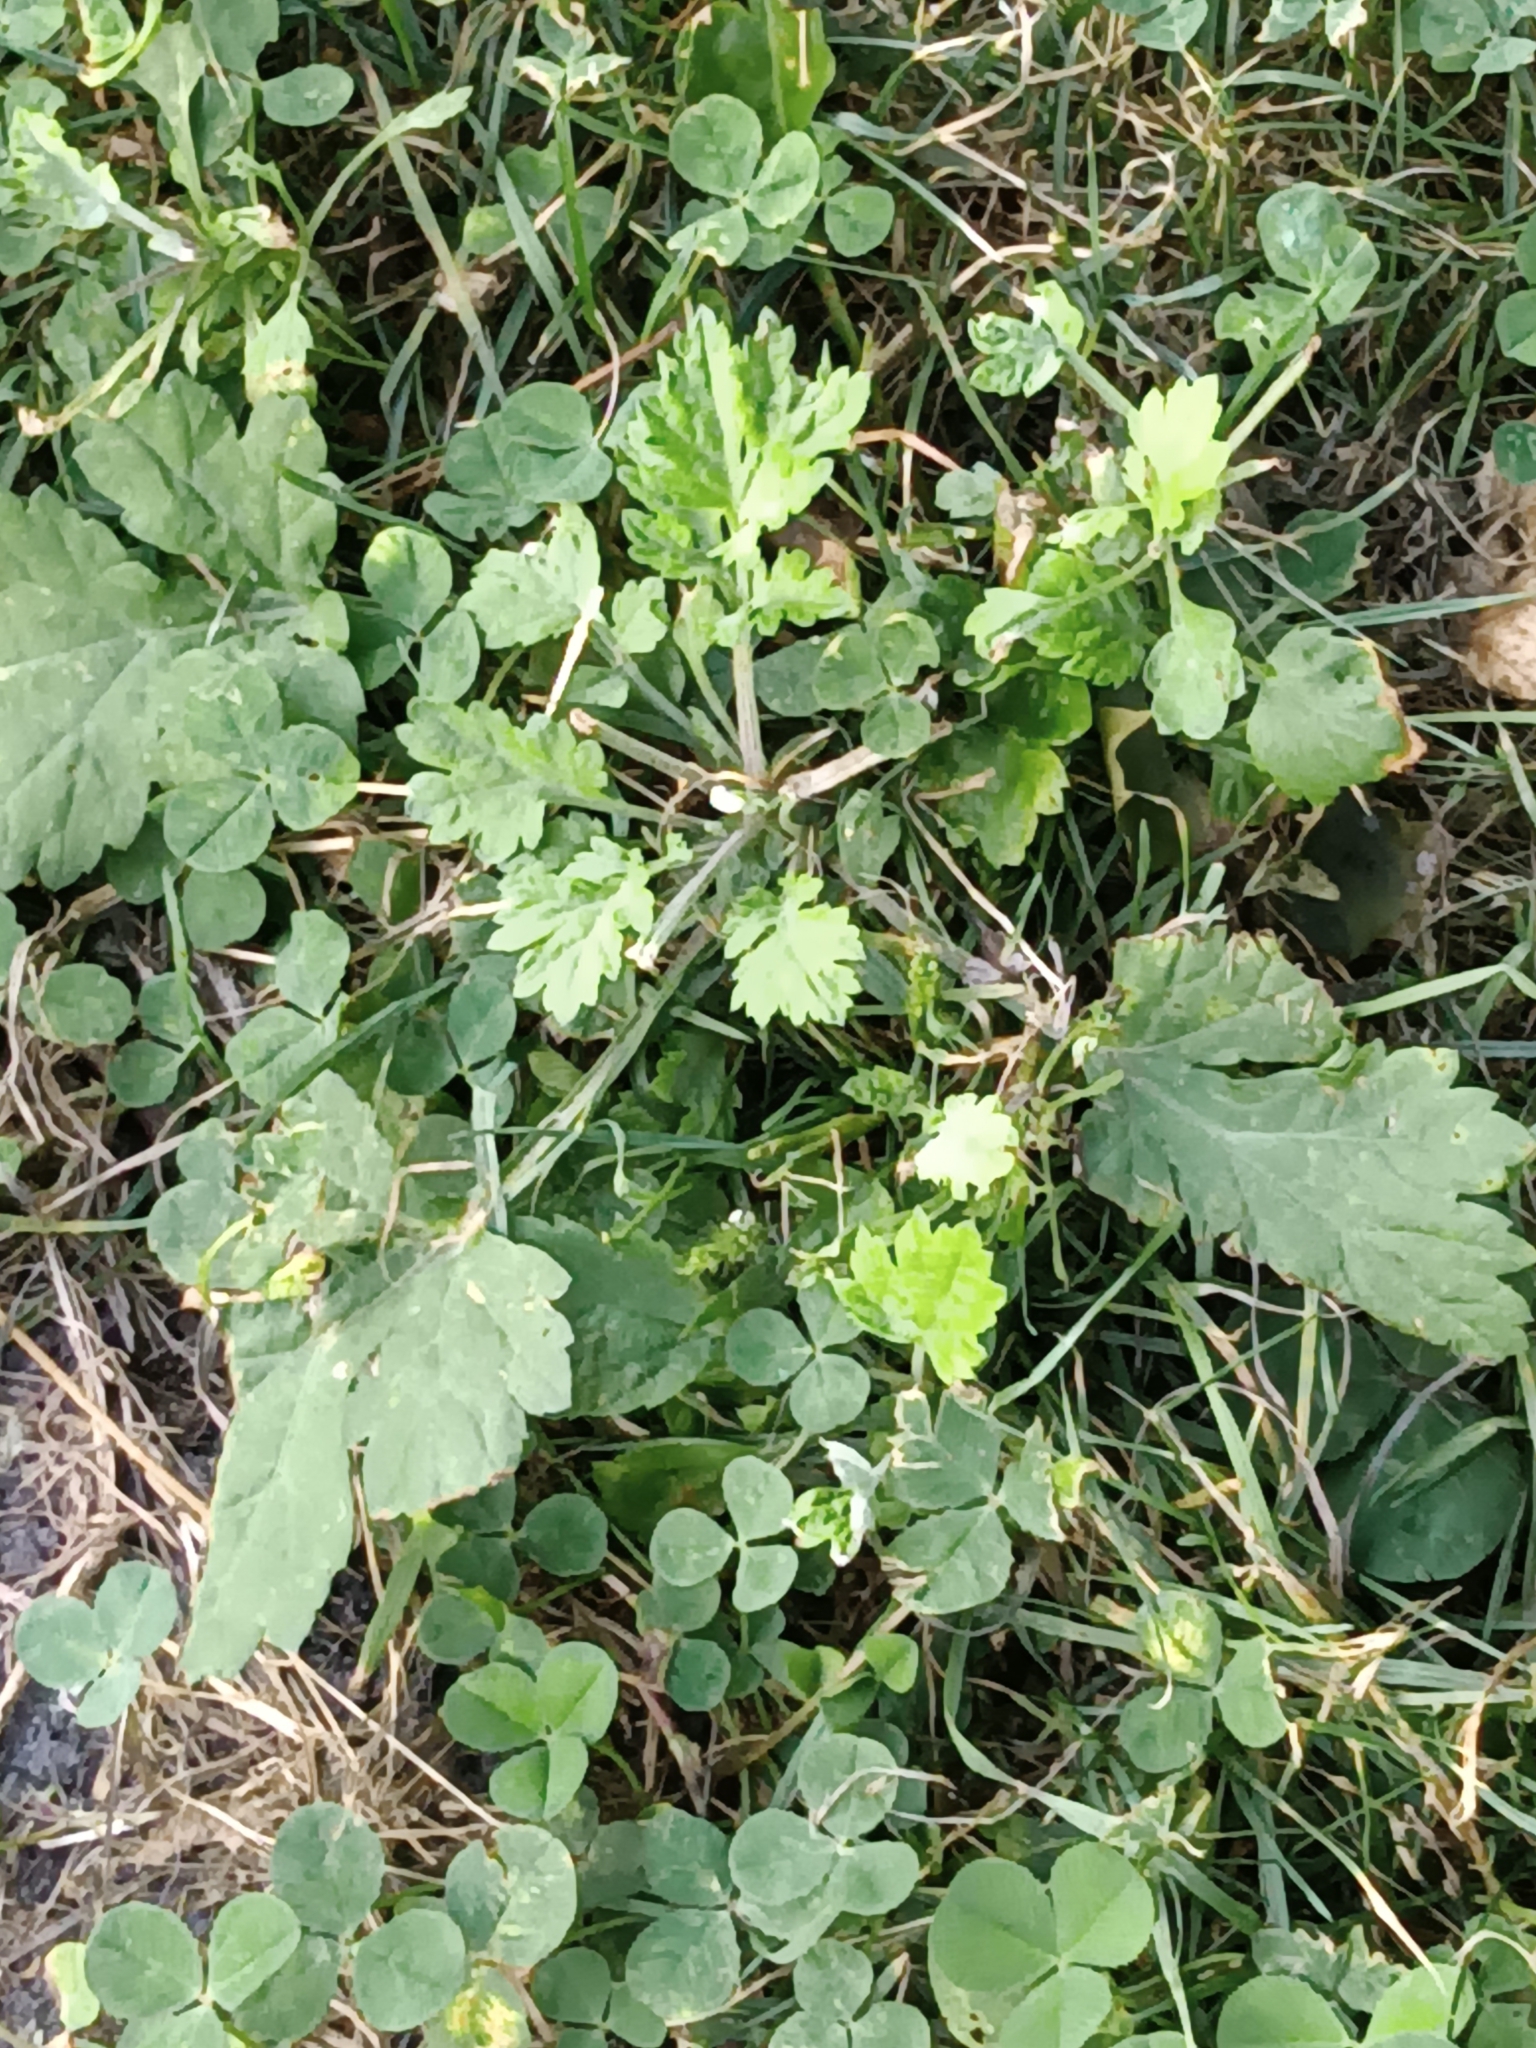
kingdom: Plantae
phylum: Tracheophyta
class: Magnoliopsida
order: Ranunculales
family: Papaveraceae
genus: Chelidonium
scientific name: Chelidonium majus
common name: Greater celandine
